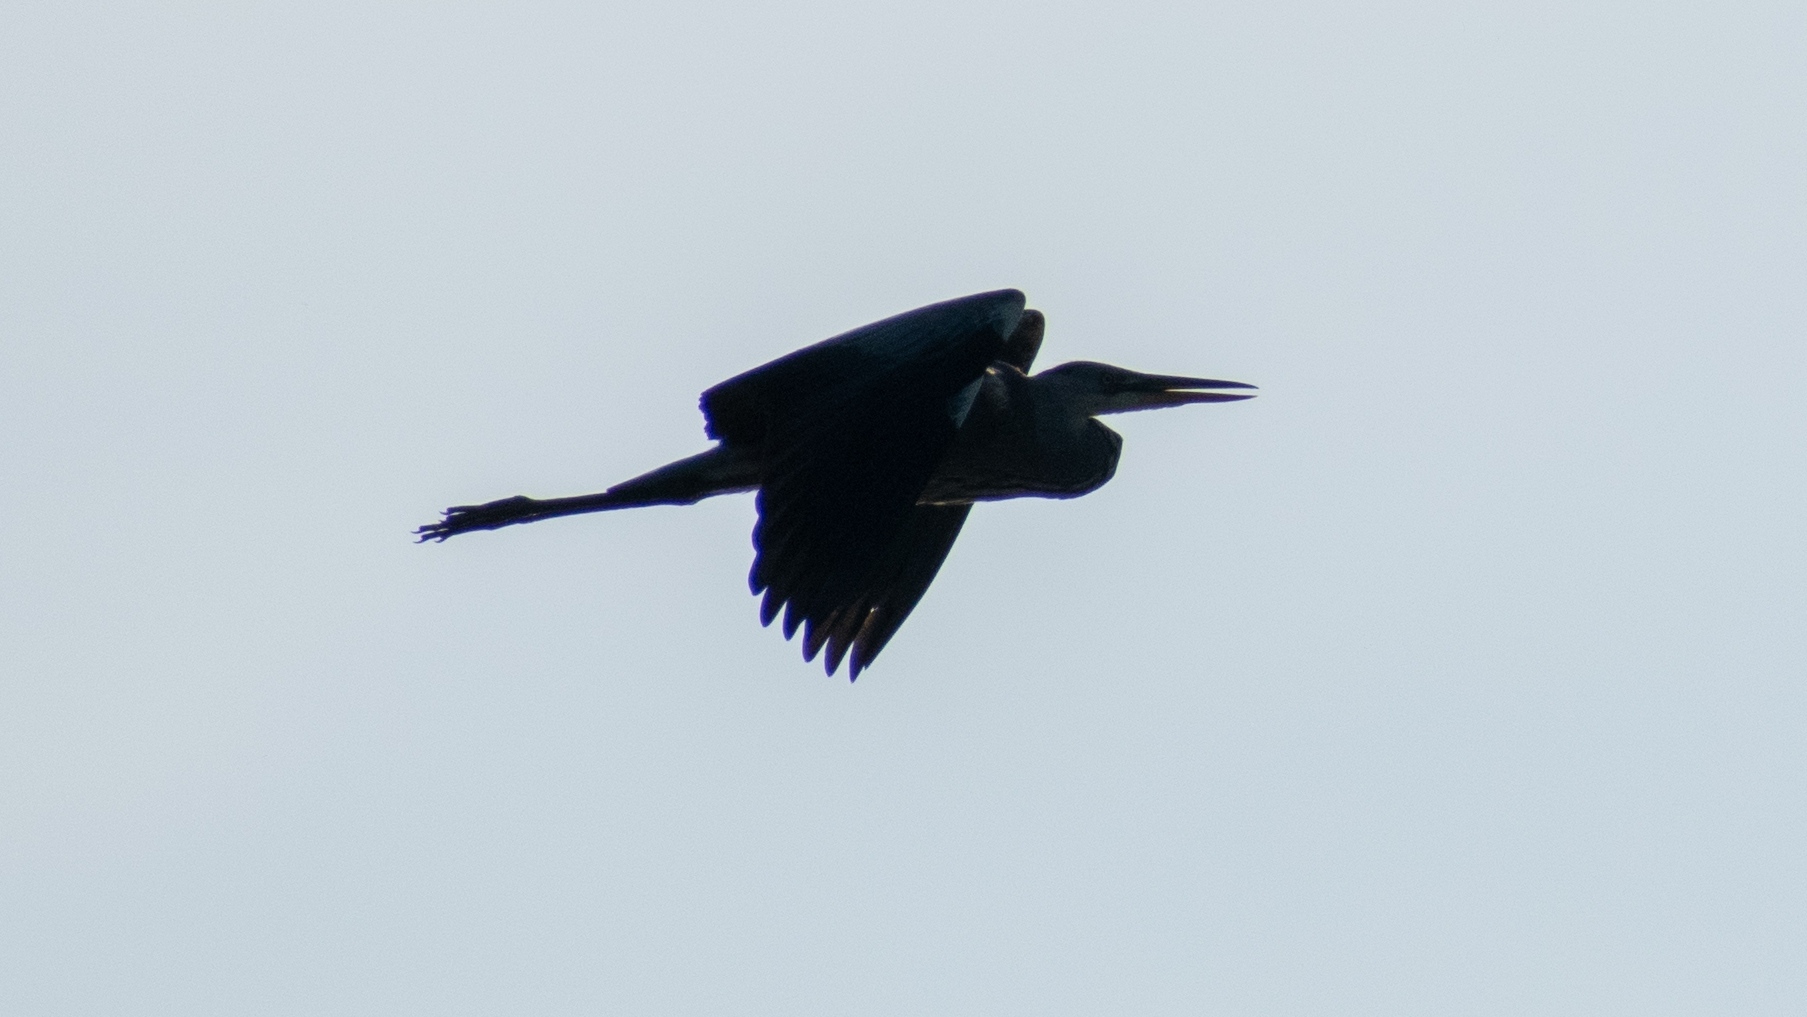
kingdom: Animalia
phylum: Chordata
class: Aves
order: Pelecaniformes
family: Ardeidae
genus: Ardea
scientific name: Ardea cinerea
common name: Grey heron
